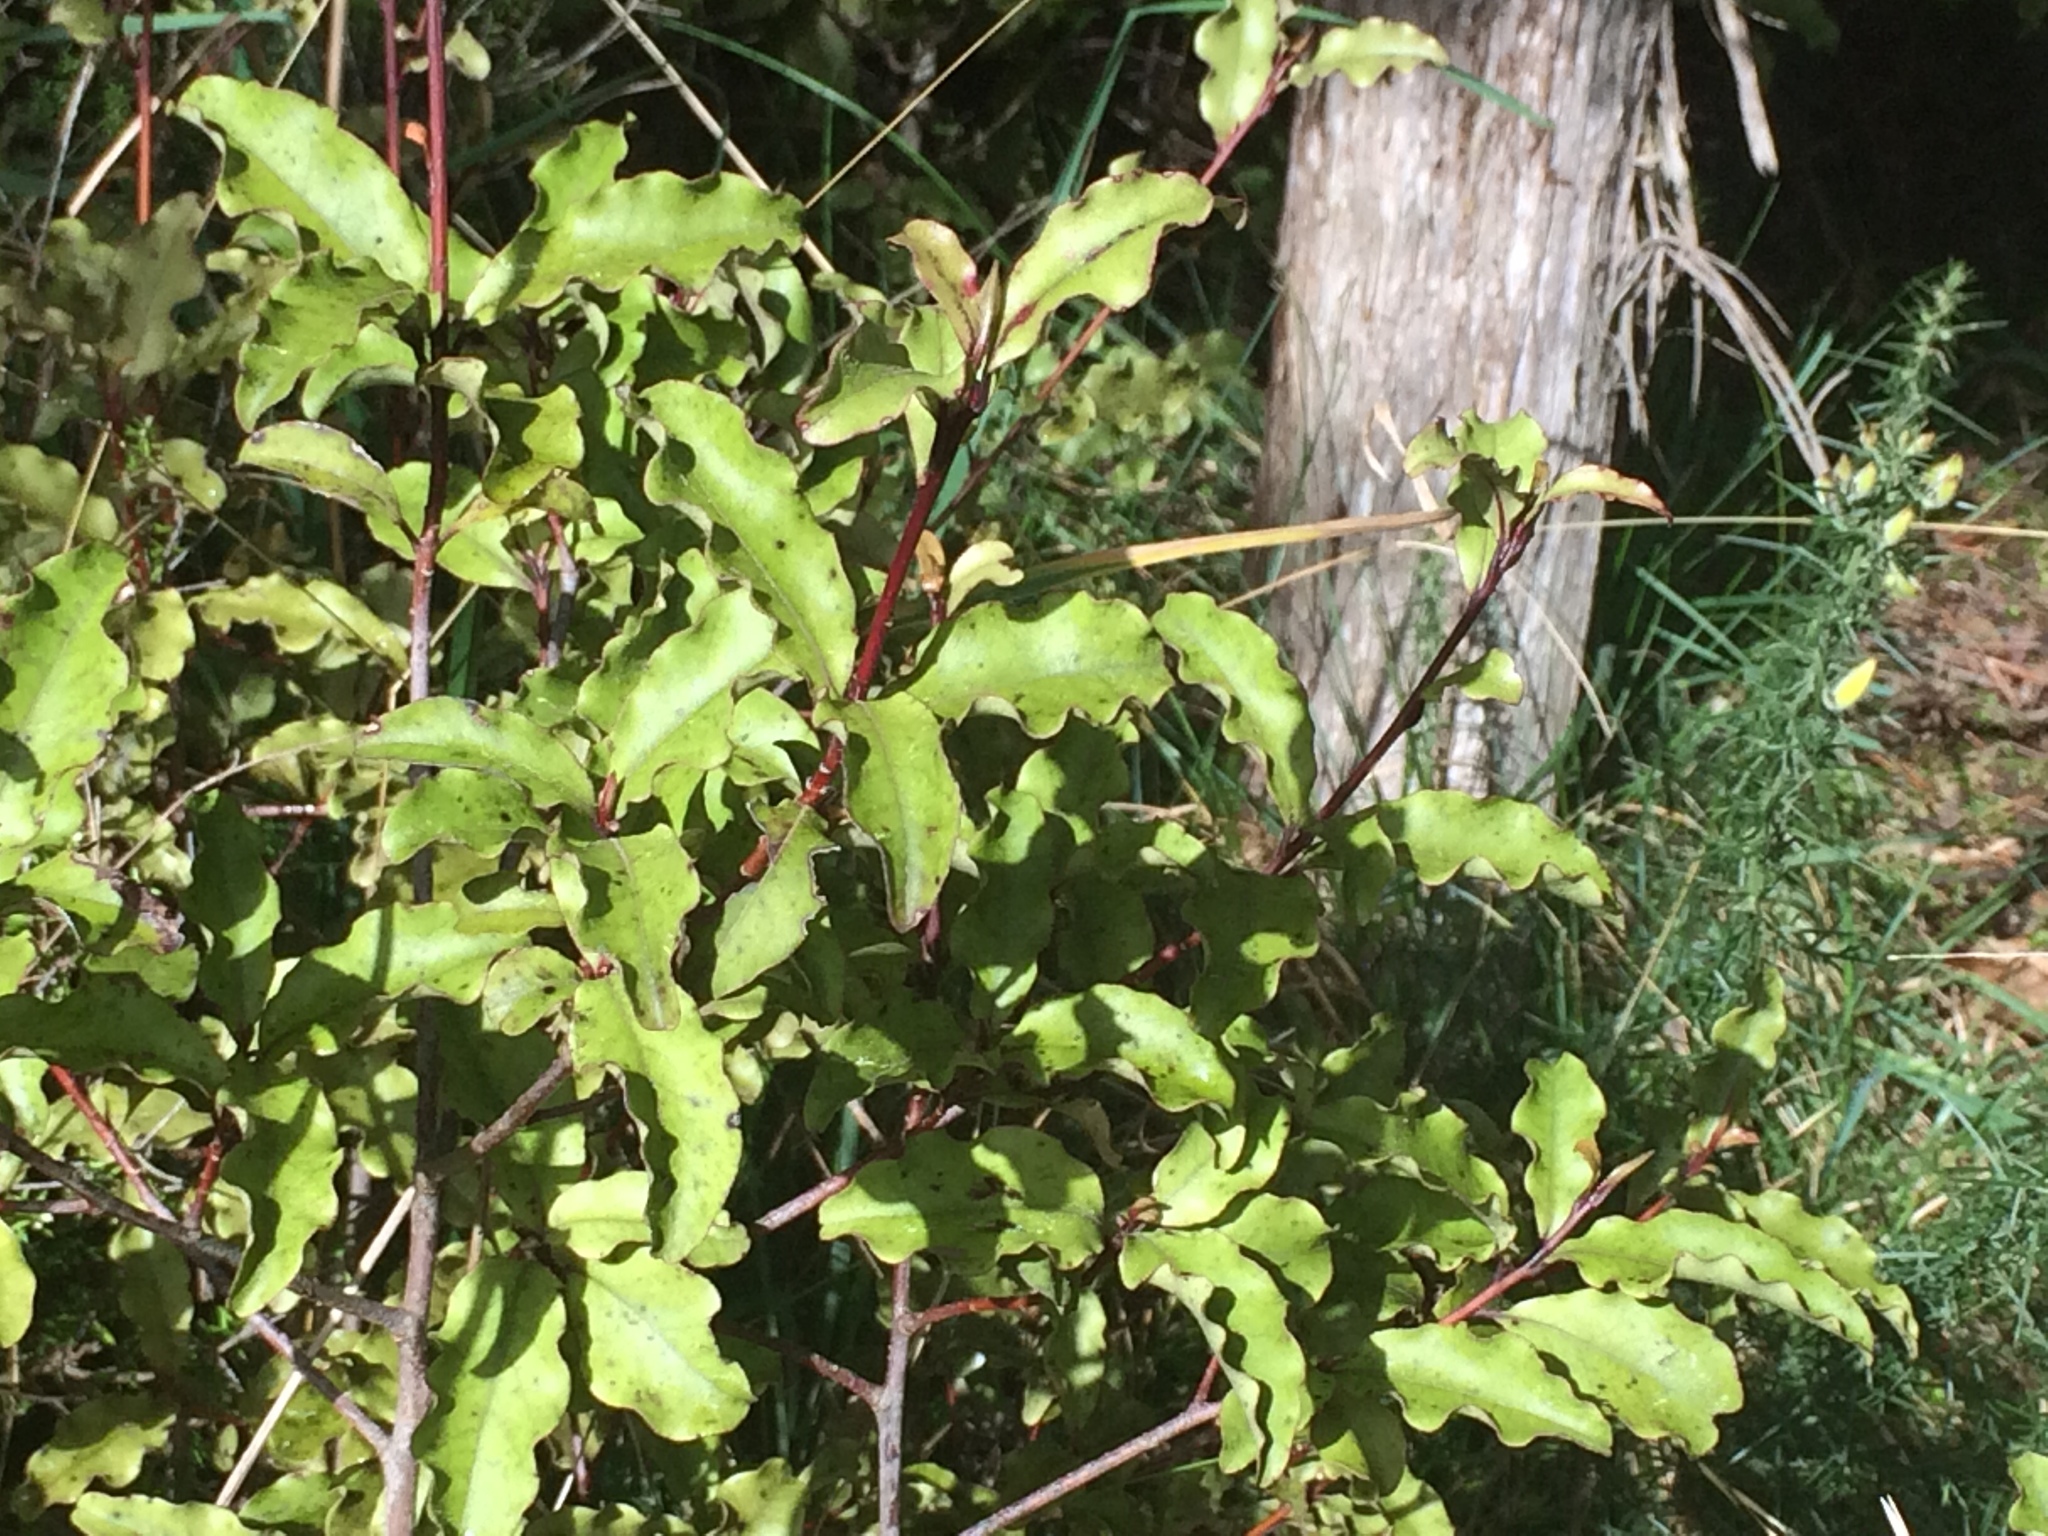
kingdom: Plantae
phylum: Tracheophyta
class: Magnoliopsida
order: Ericales
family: Primulaceae
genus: Myrsine
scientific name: Myrsine australis
